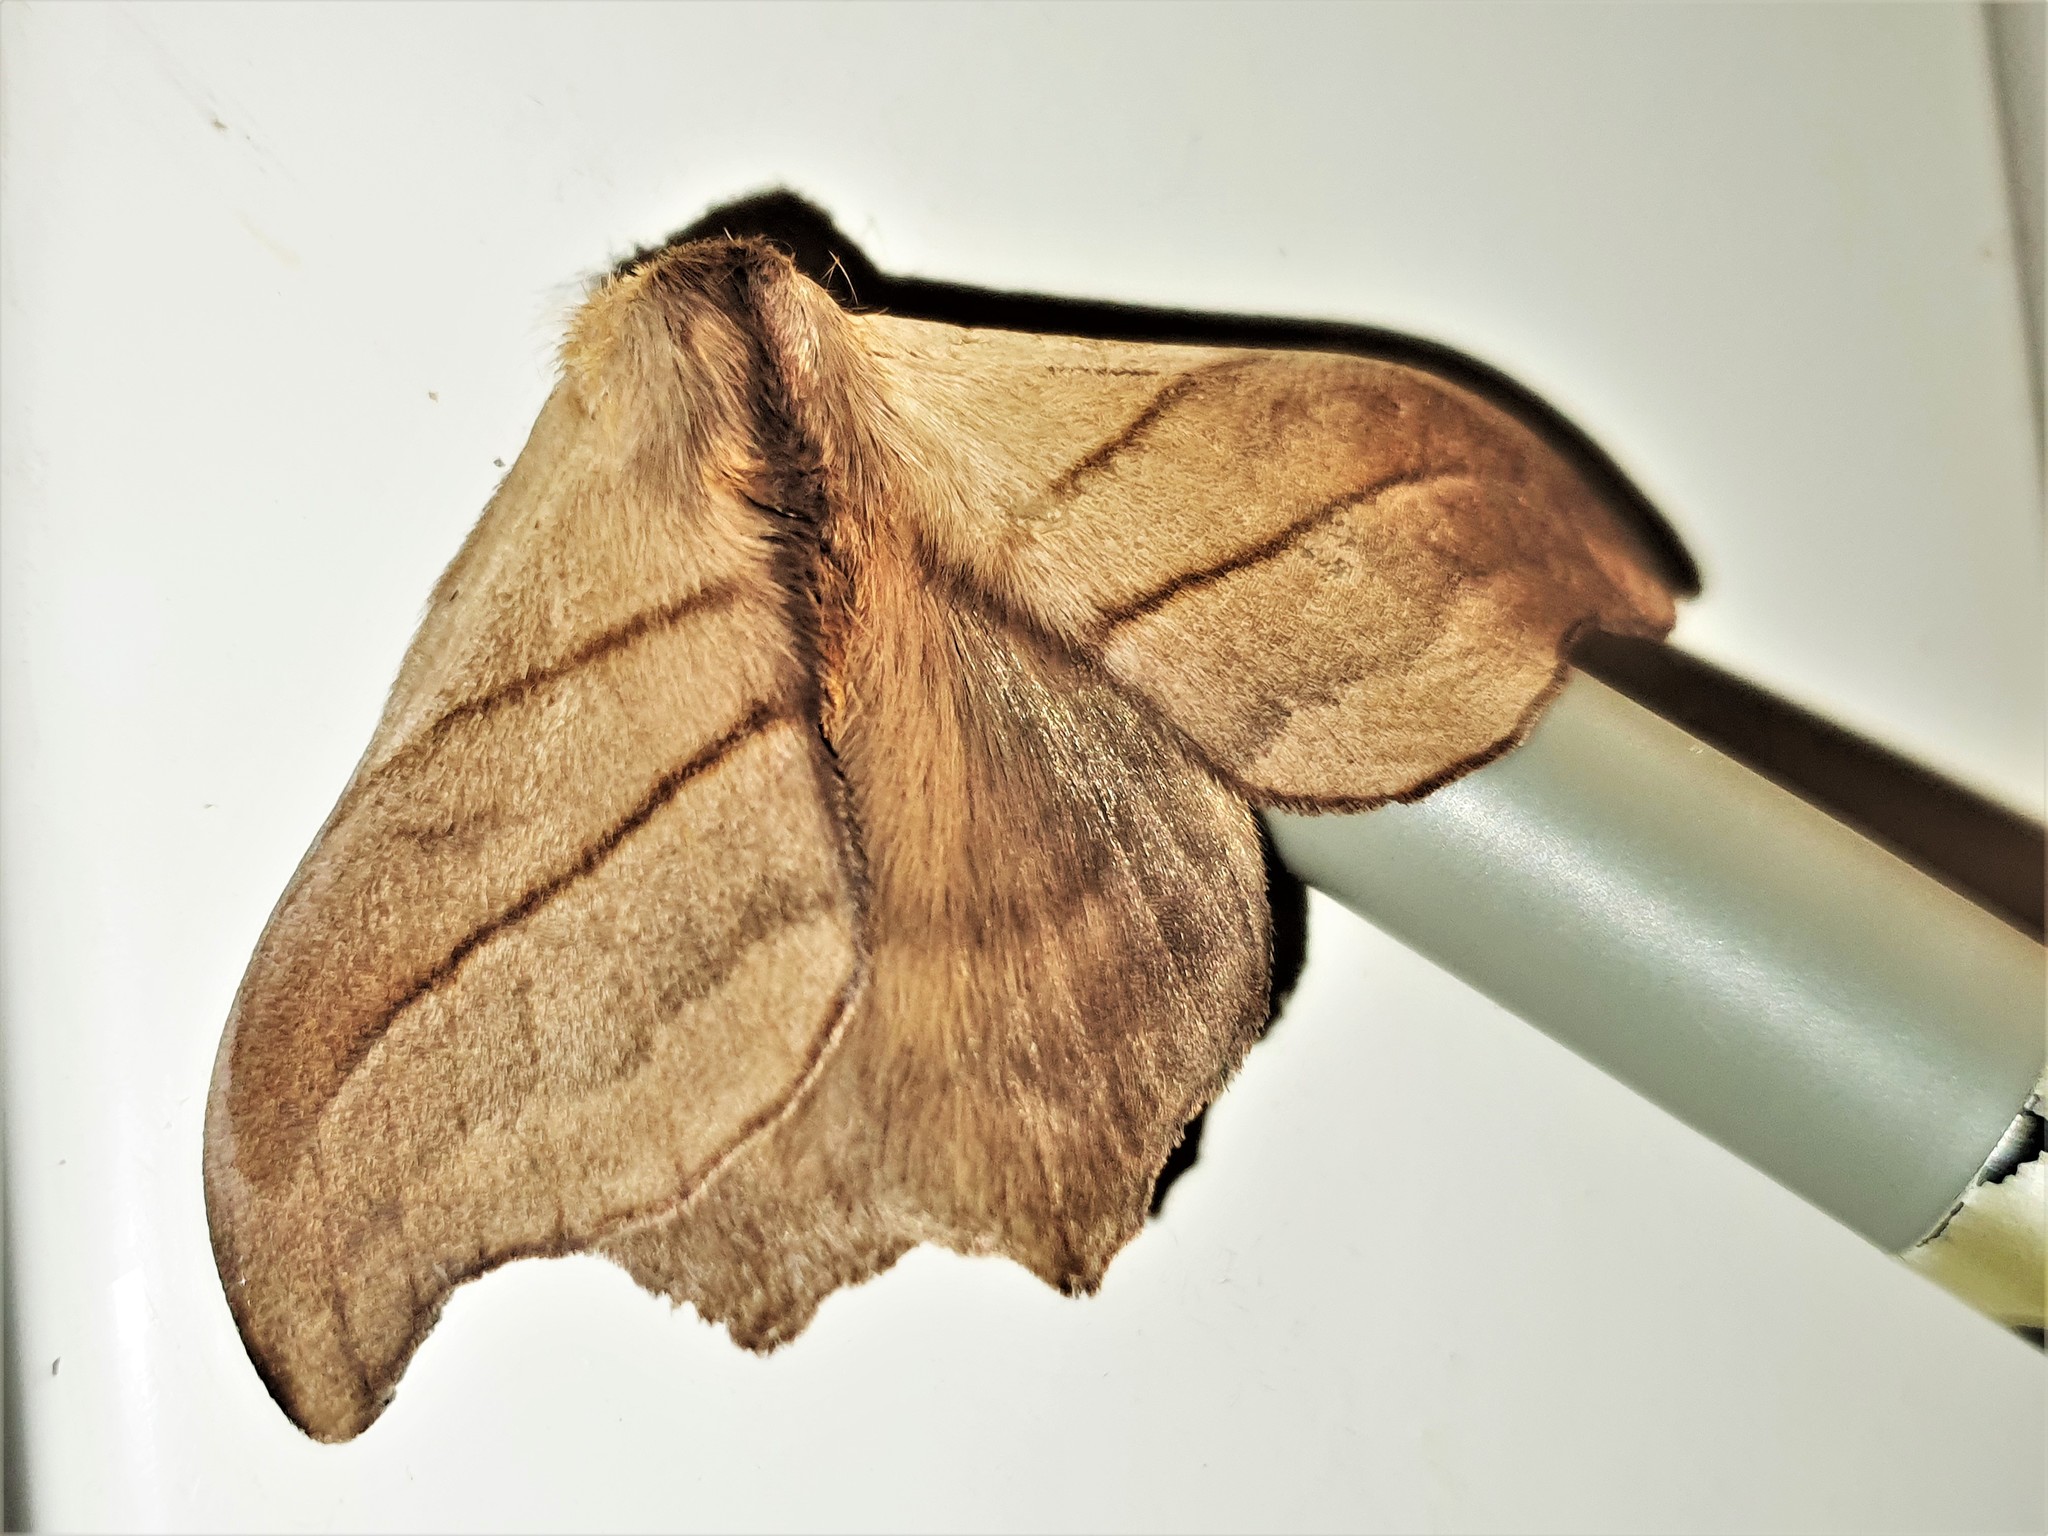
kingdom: Animalia
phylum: Arthropoda
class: Insecta
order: Lepidoptera
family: Saturniidae
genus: Hylesia
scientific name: Hylesia gyrex
